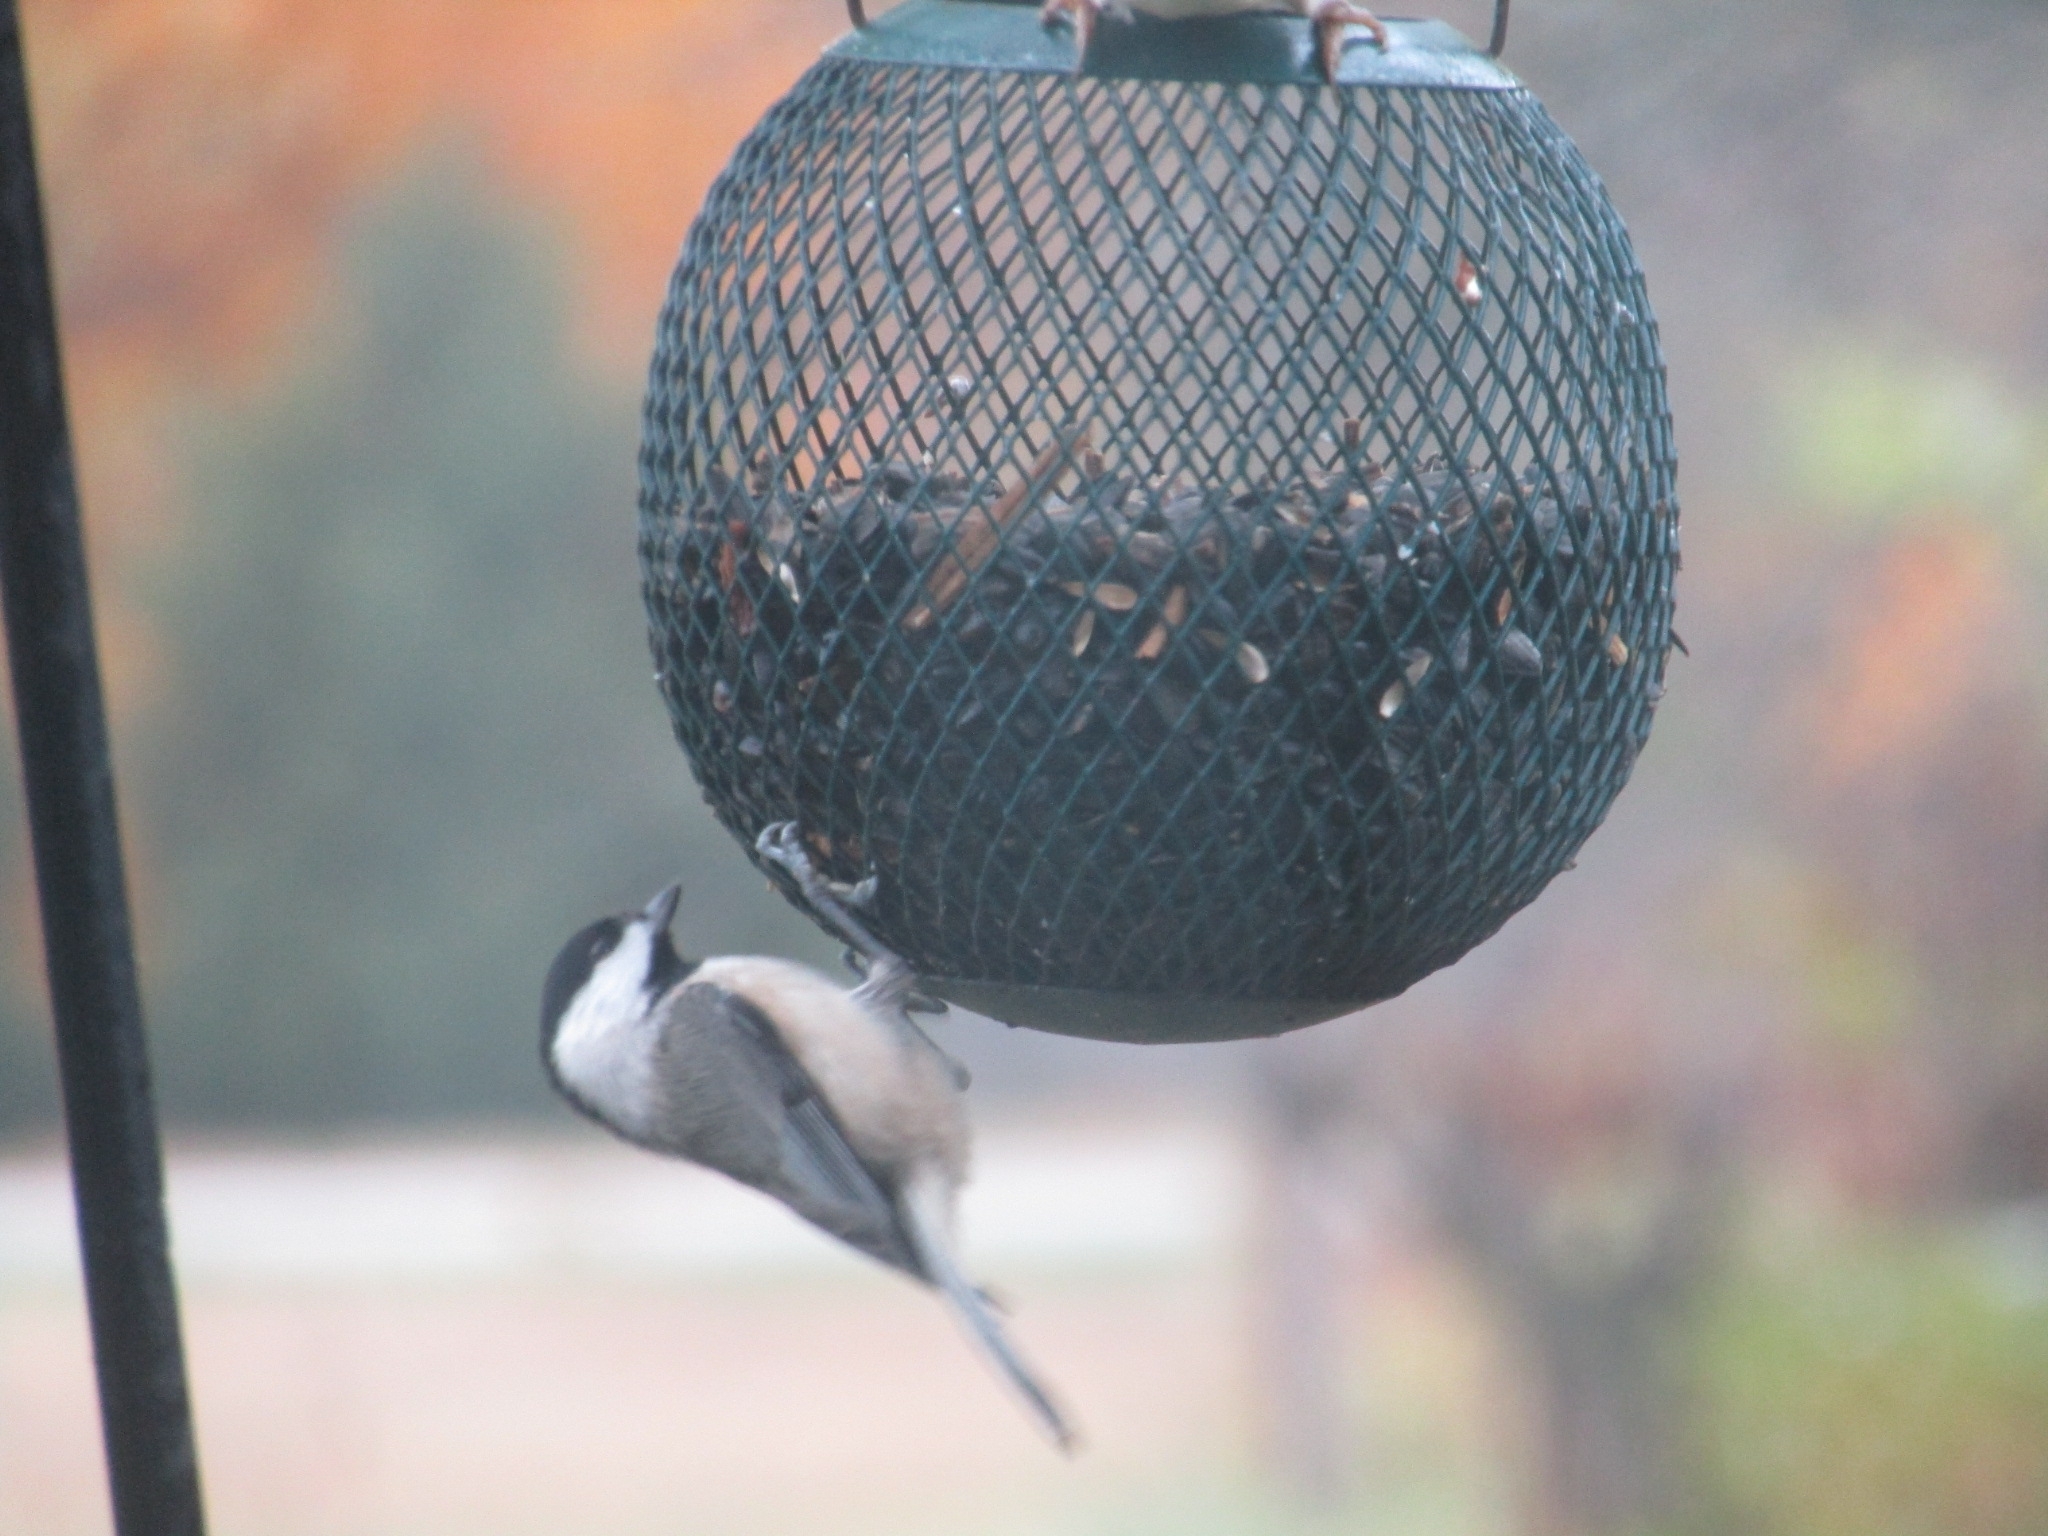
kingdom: Animalia
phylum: Chordata
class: Aves
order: Passeriformes
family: Paridae
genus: Poecile
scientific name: Poecile carolinensis
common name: Carolina chickadee
